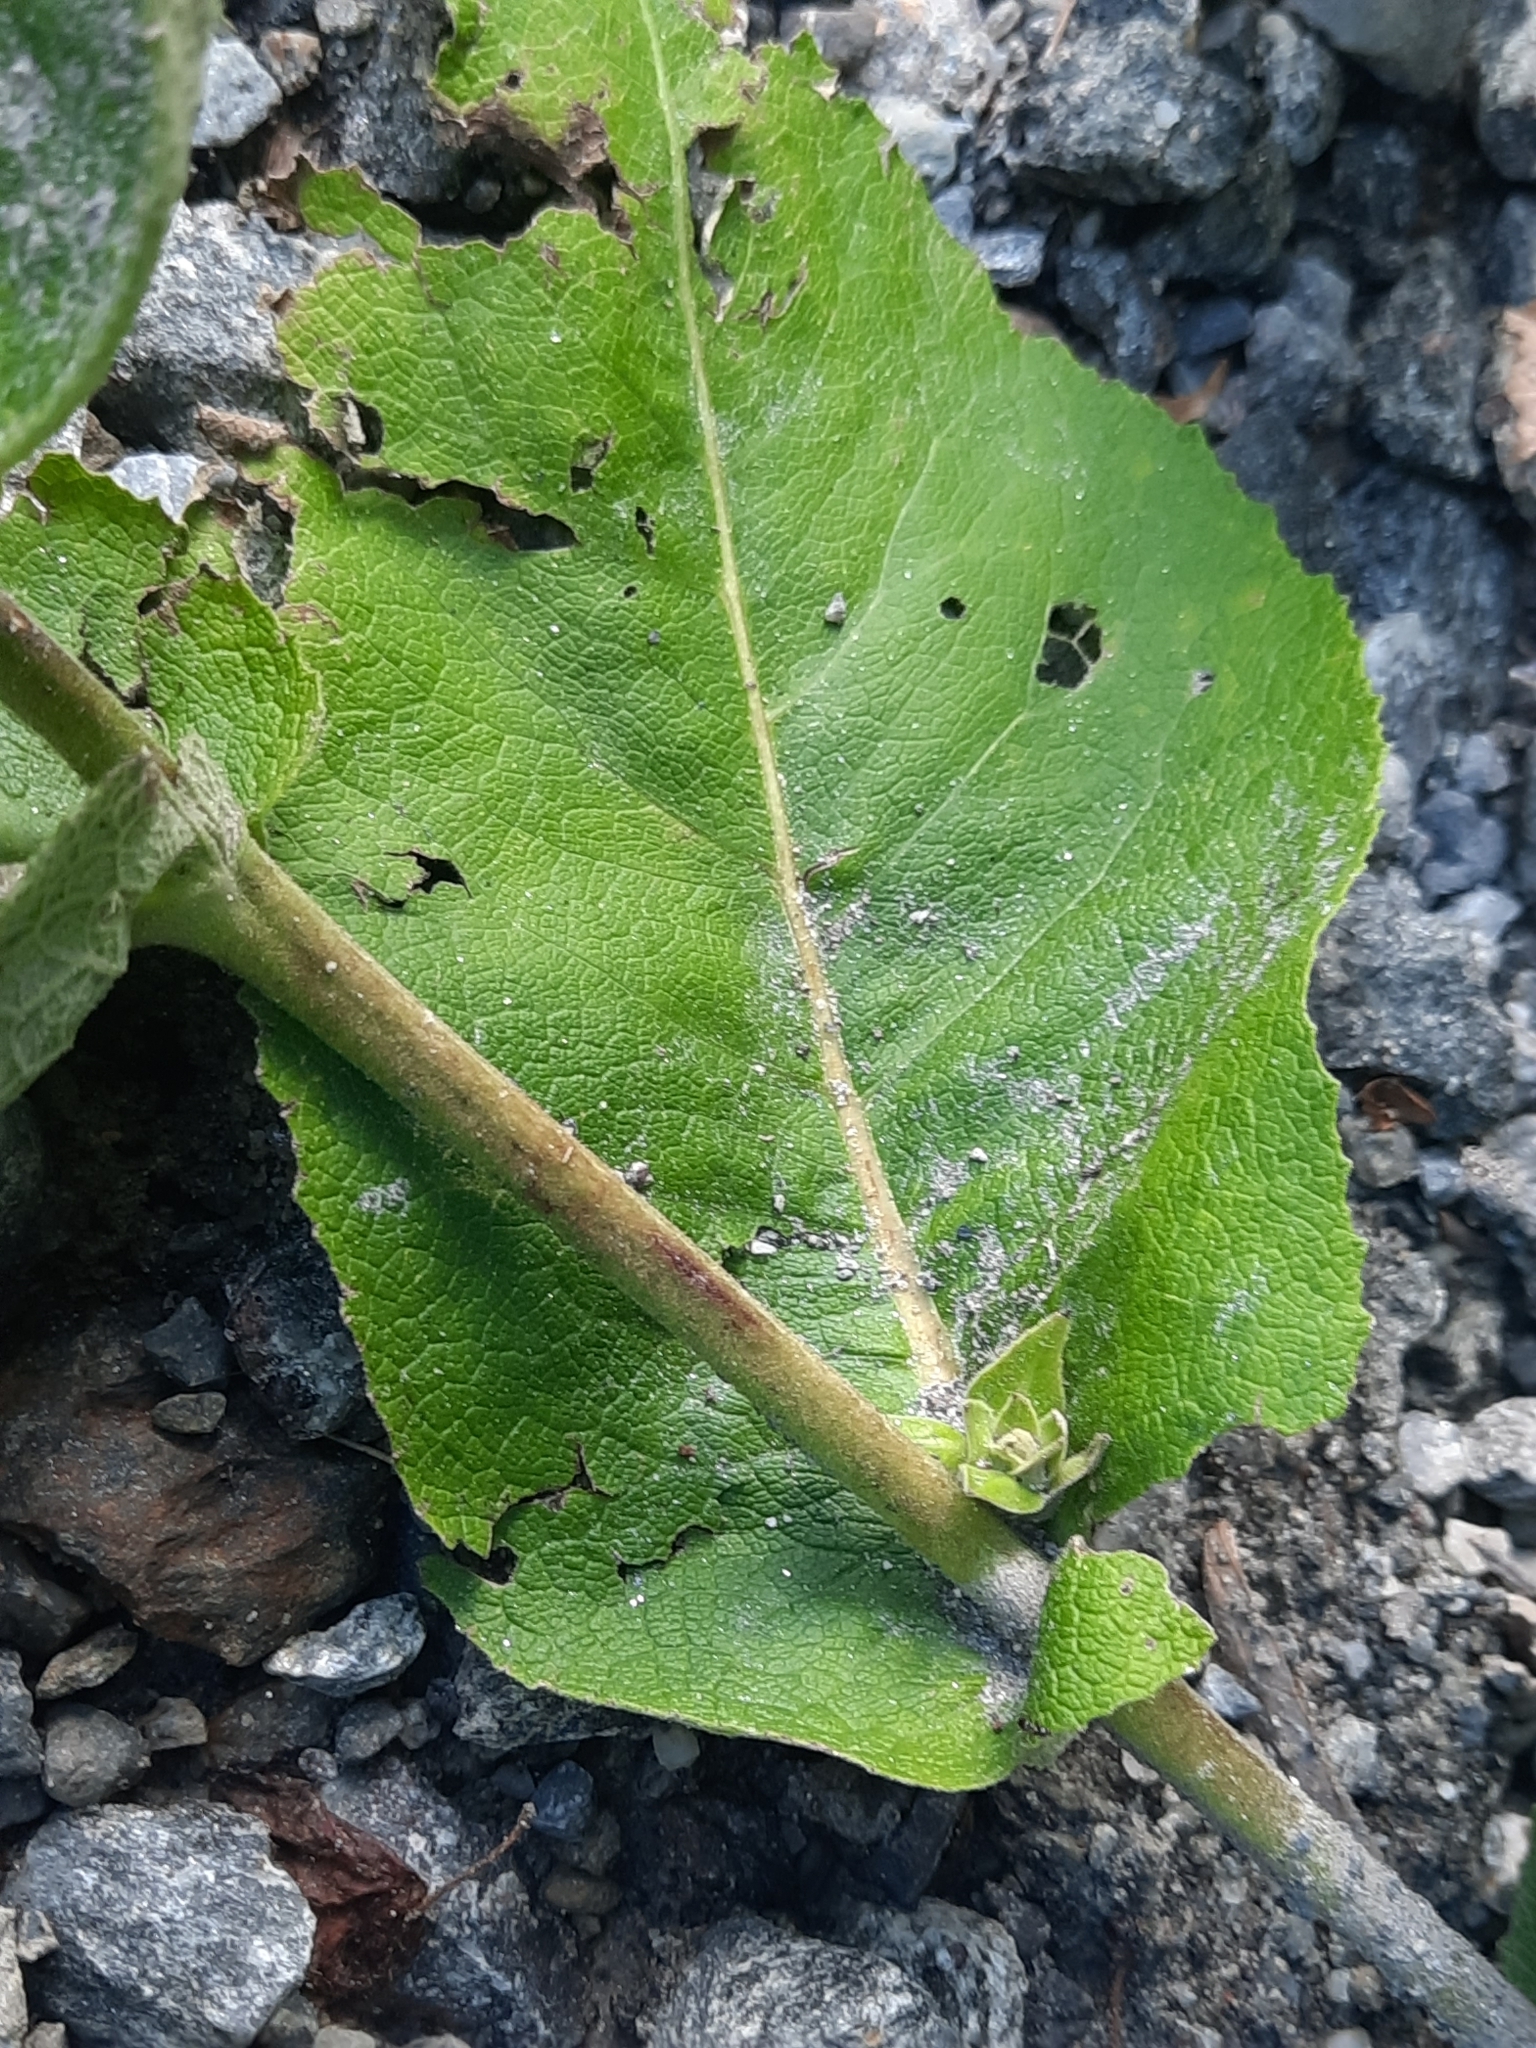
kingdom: Plantae
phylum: Tracheophyta
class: Magnoliopsida
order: Asterales
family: Asteraceae
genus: Inula
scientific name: Inula helenium
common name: Elecampane
